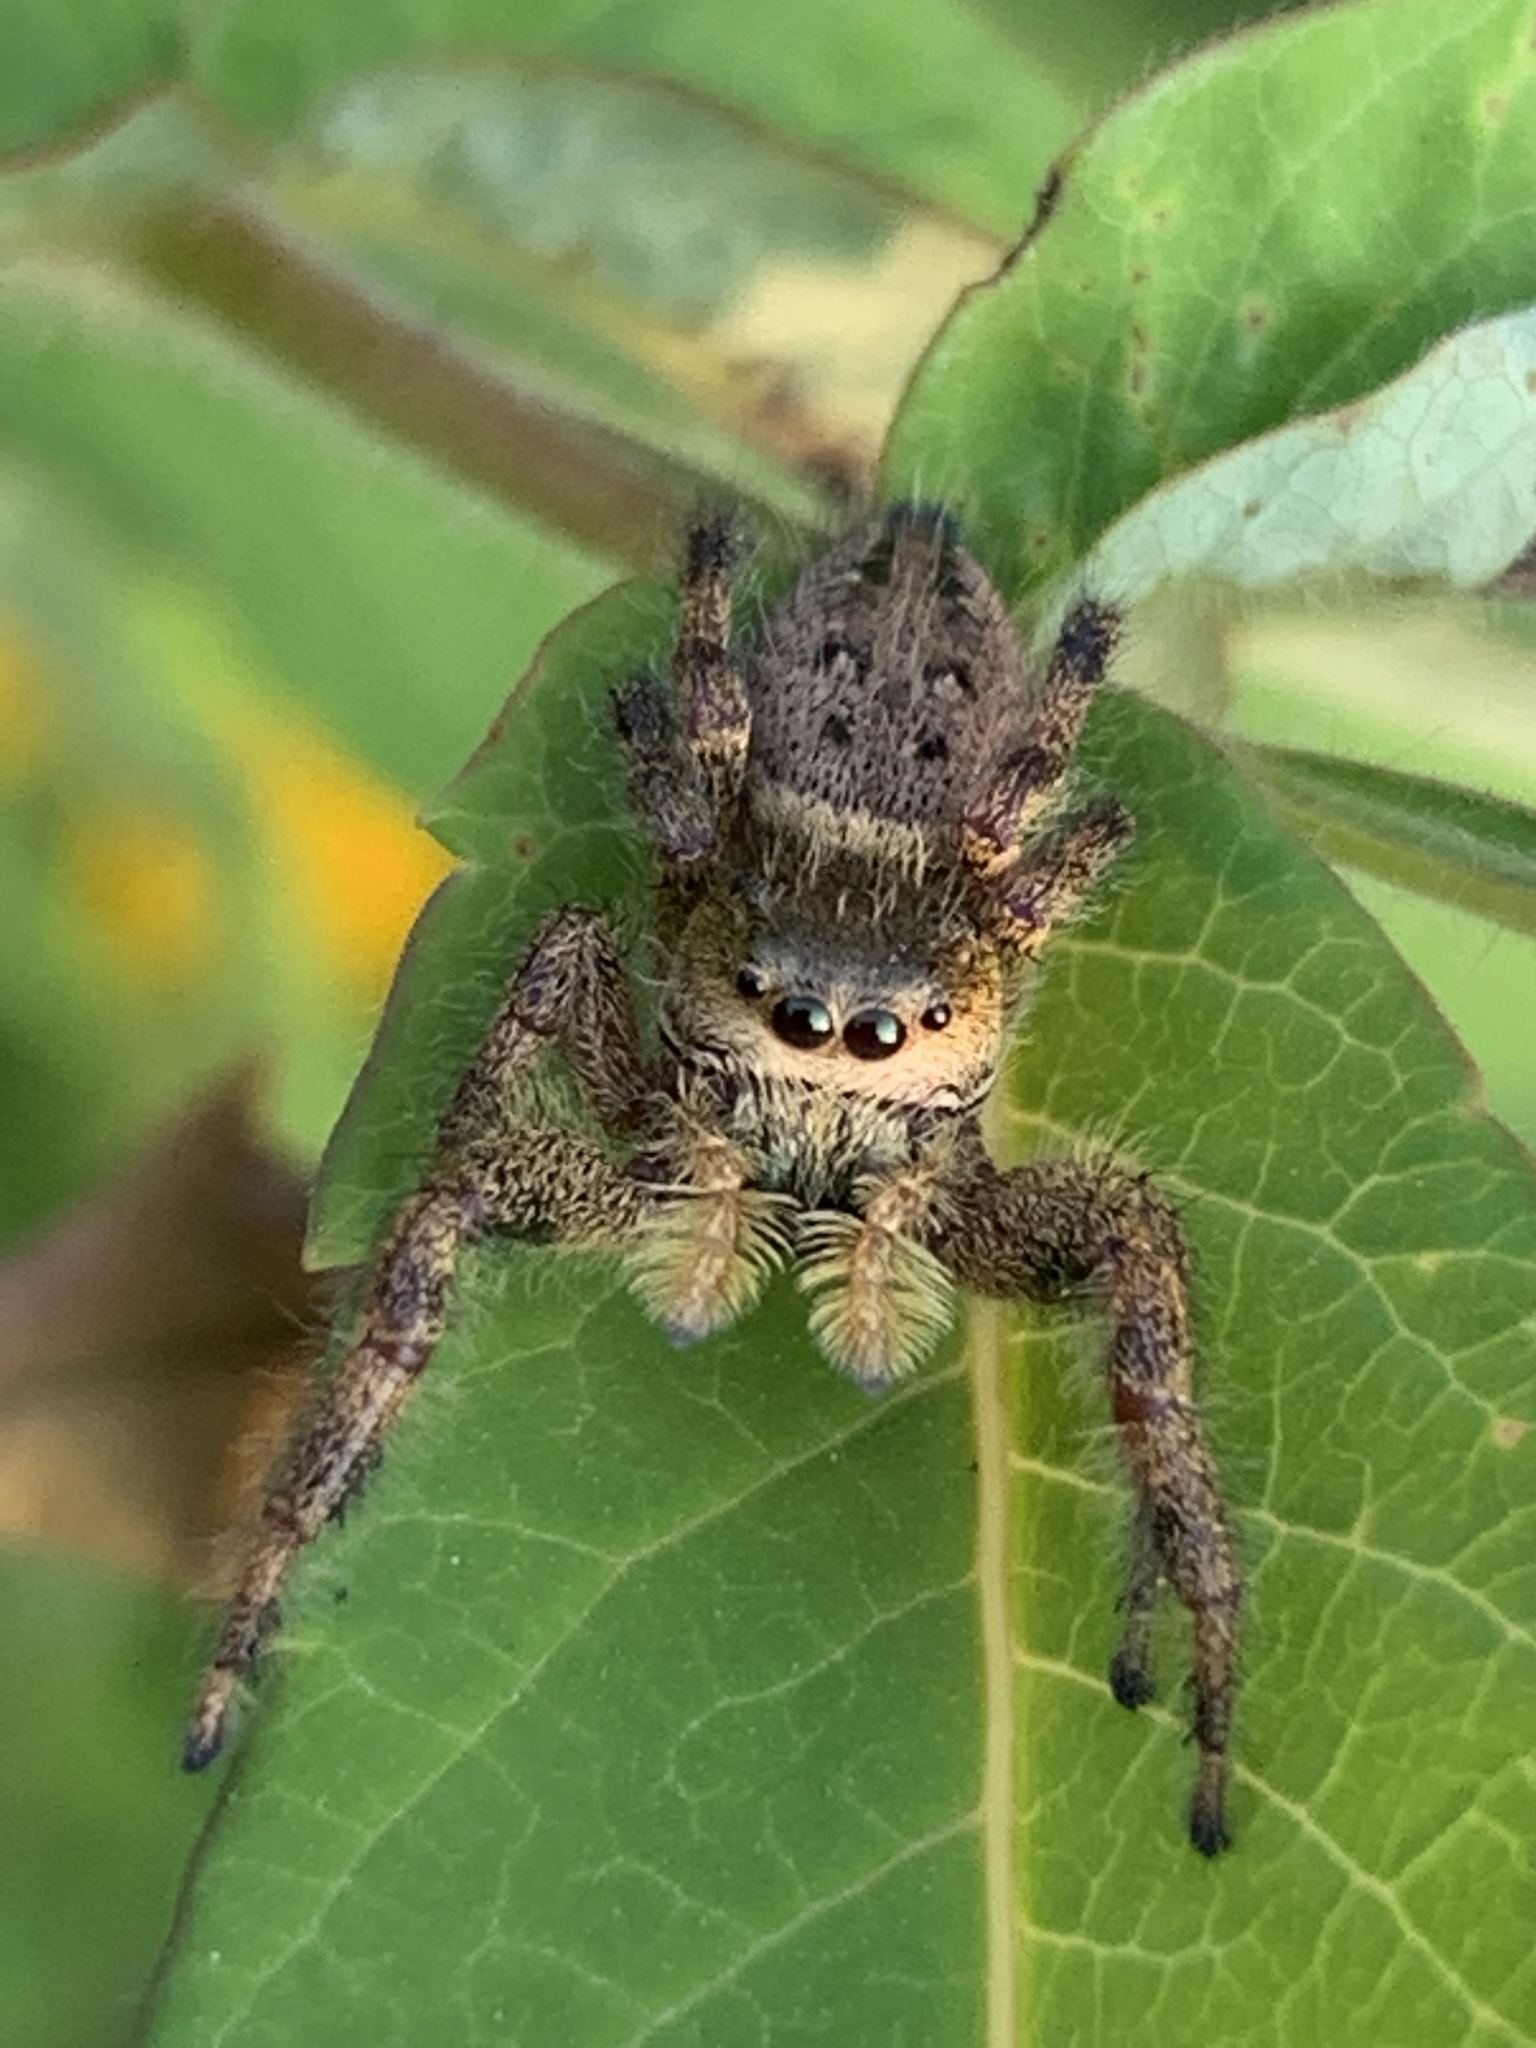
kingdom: Animalia
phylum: Arthropoda
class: Arachnida
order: Araneae
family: Salticidae
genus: Phidippus
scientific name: Phidippus clarus
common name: Brilliant jumping spider
